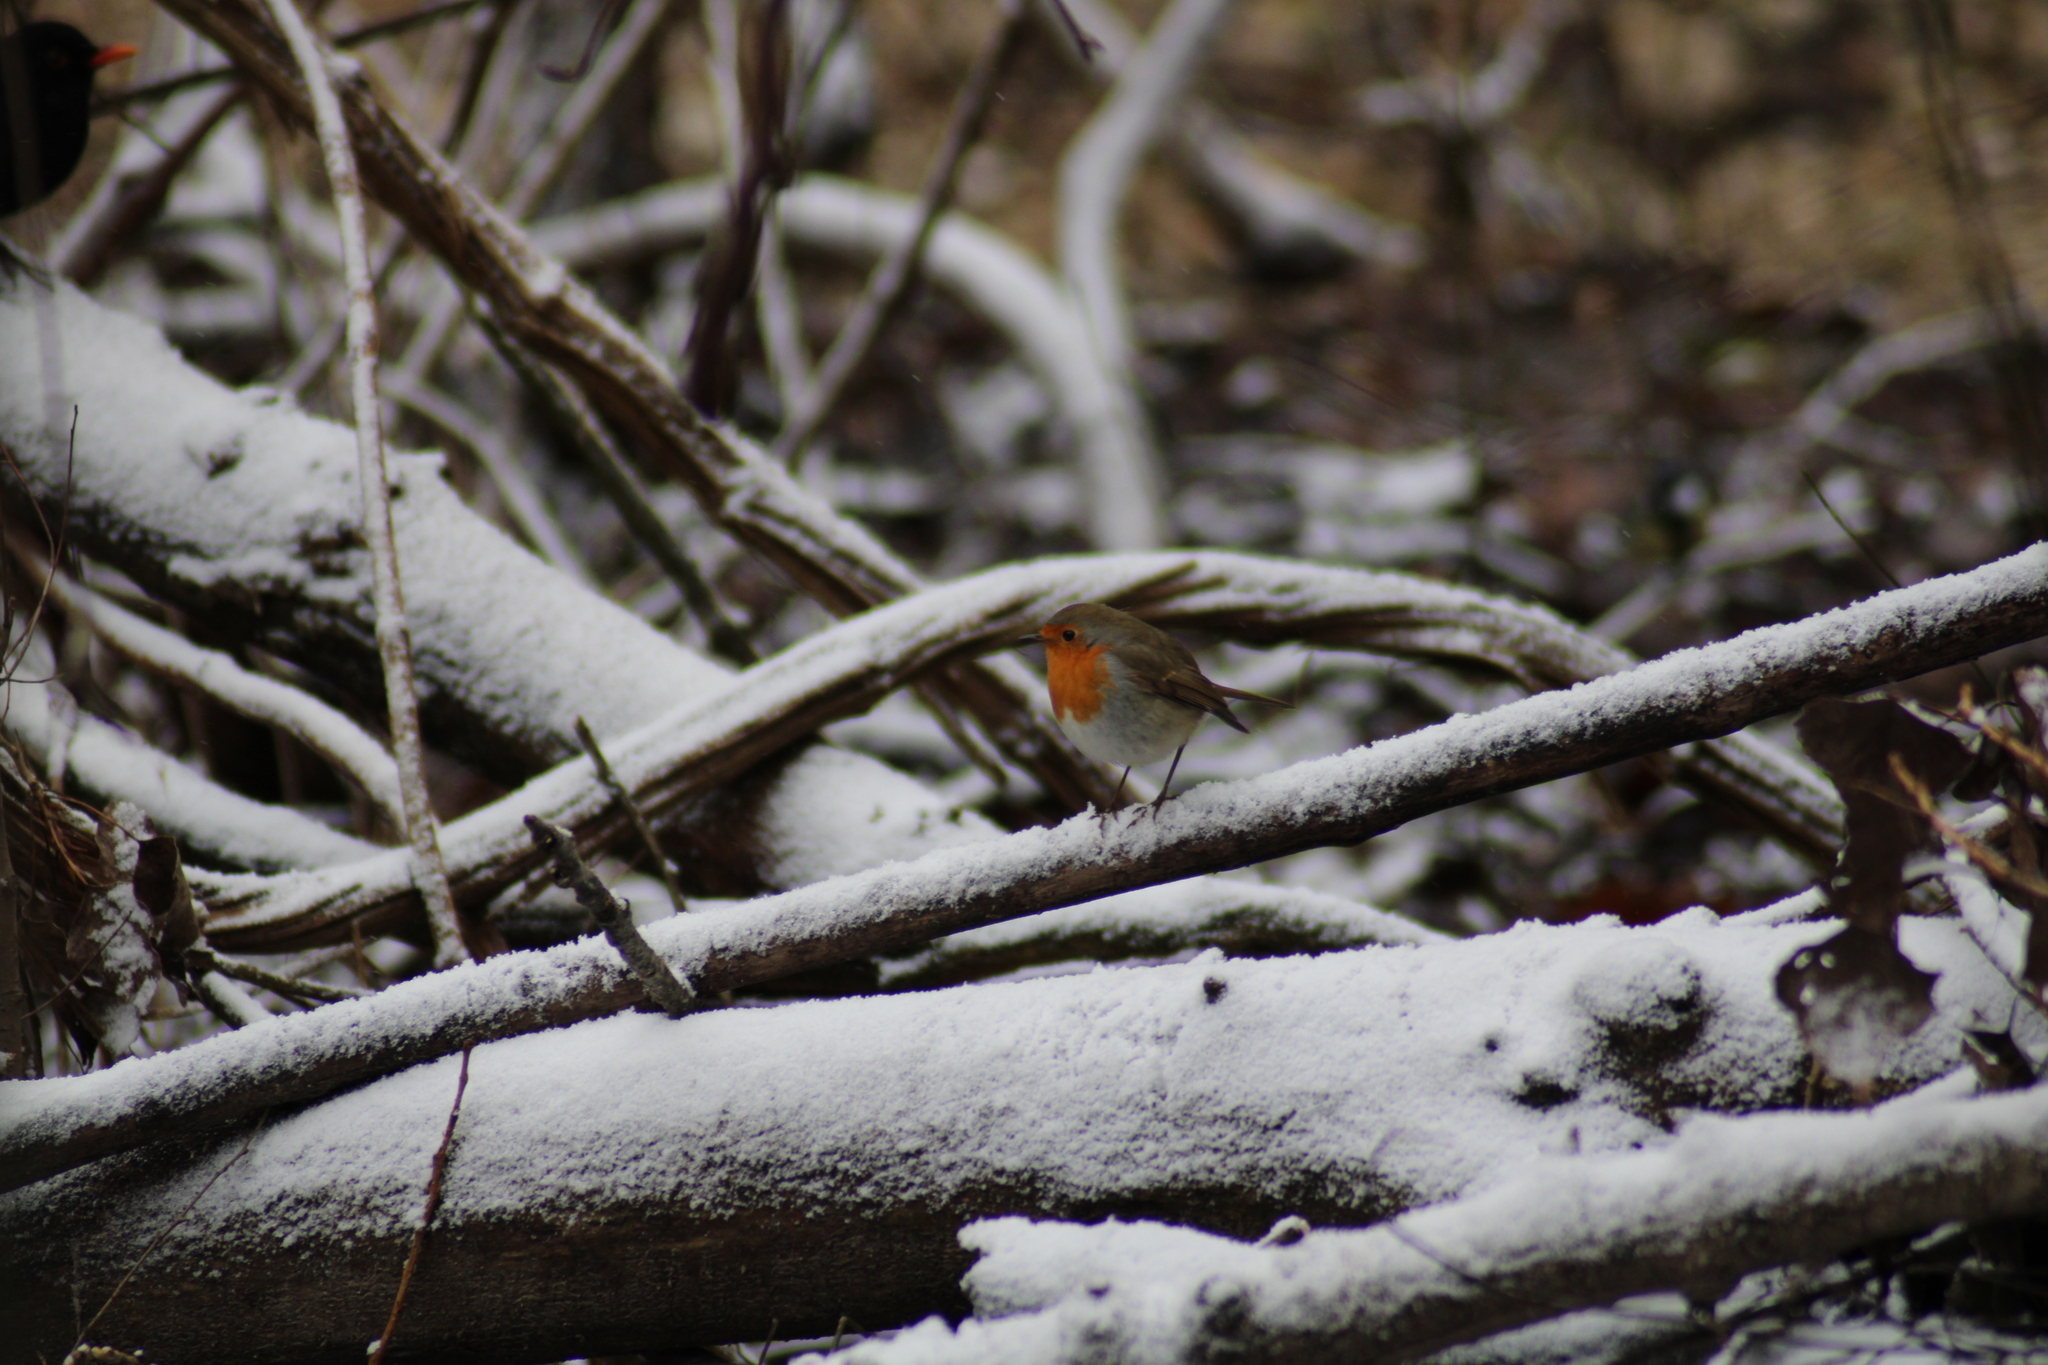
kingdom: Animalia
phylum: Chordata
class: Aves
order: Passeriformes
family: Muscicapidae
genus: Erithacus
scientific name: Erithacus rubecula
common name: European robin
